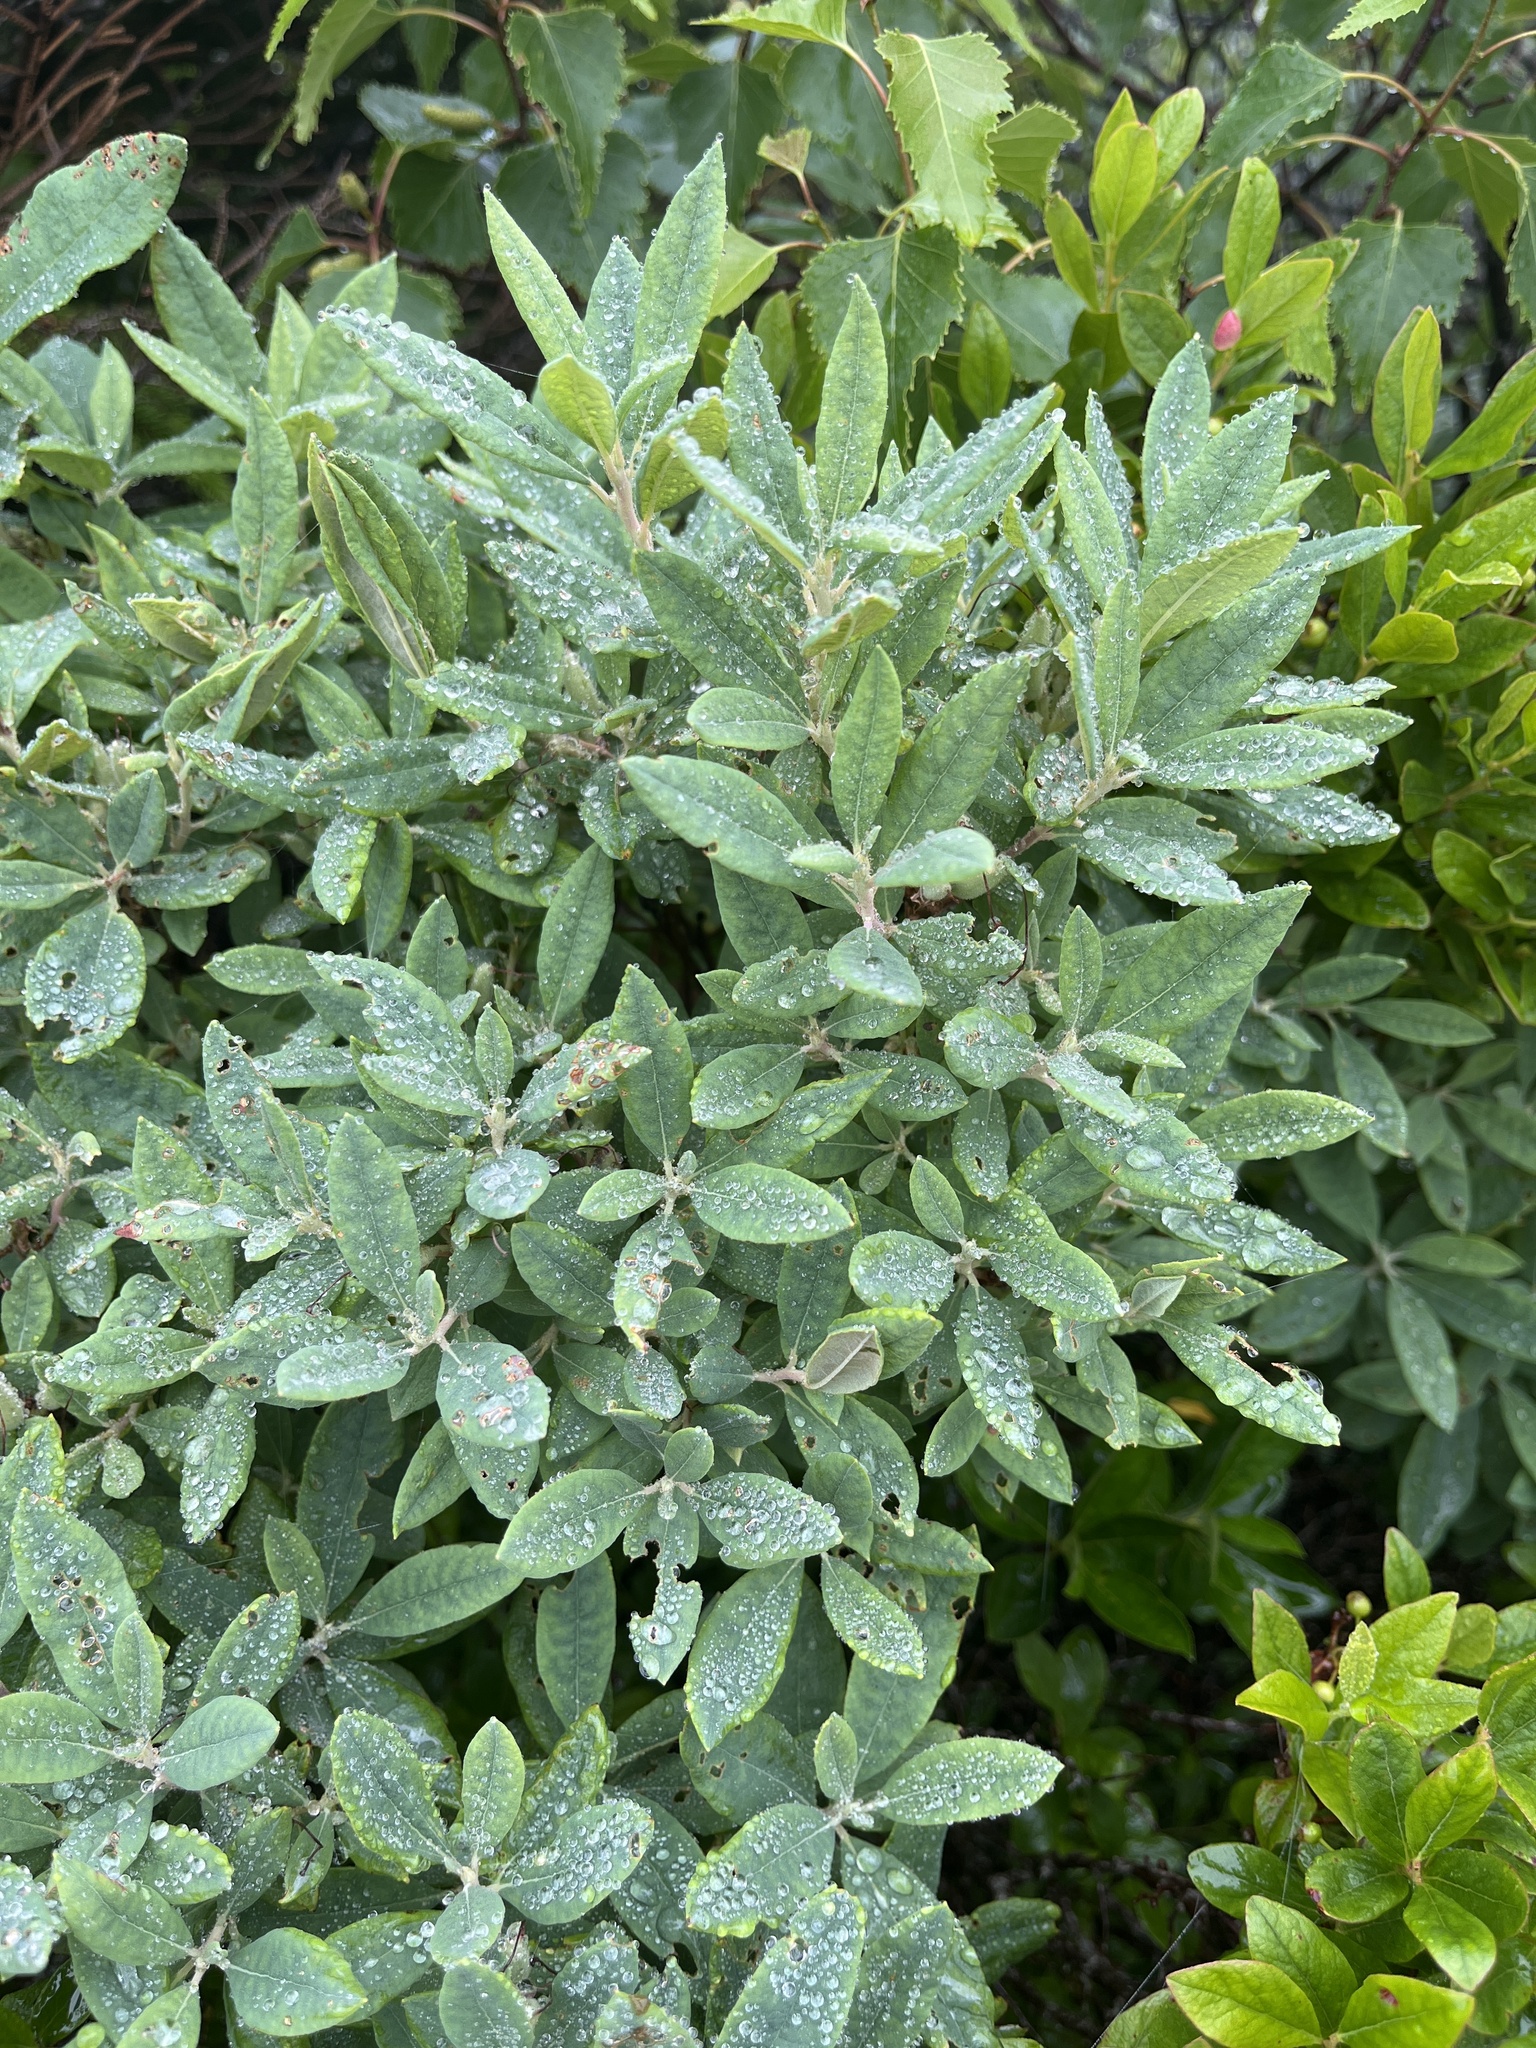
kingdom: Plantae
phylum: Tracheophyta
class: Magnoliopsida
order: Ericales
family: Ericaceae
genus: Rhododendron
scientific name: Rhododendron canadense
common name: Rhodora
